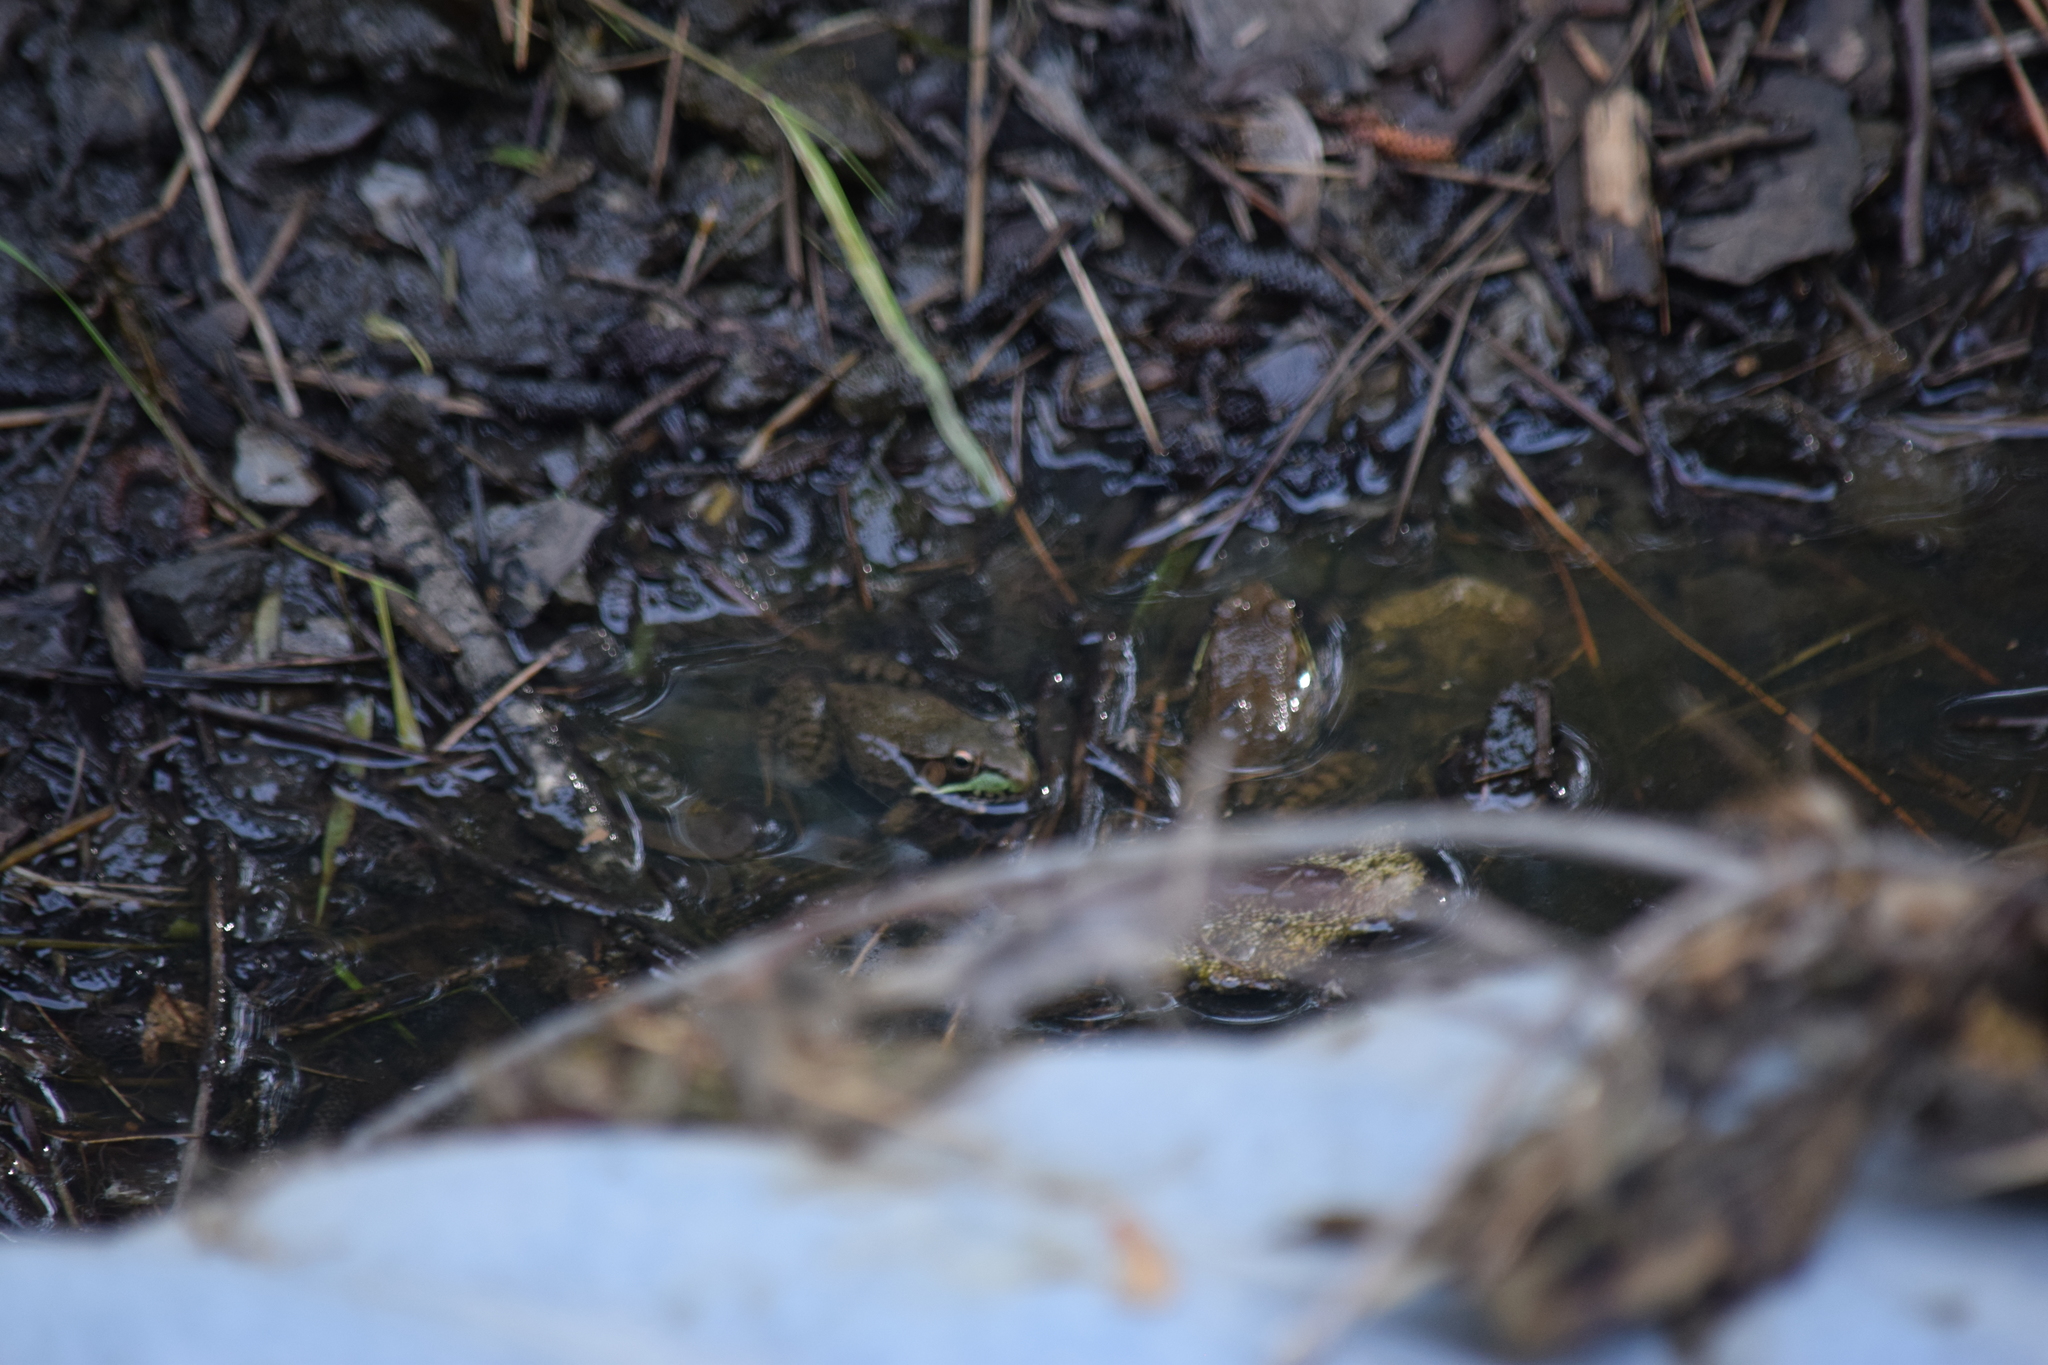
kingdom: Animalia
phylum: Chordata
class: Amphibia
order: Anura
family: Ranidae
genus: Lithobates
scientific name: Lithobates clamitans
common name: Green frog
